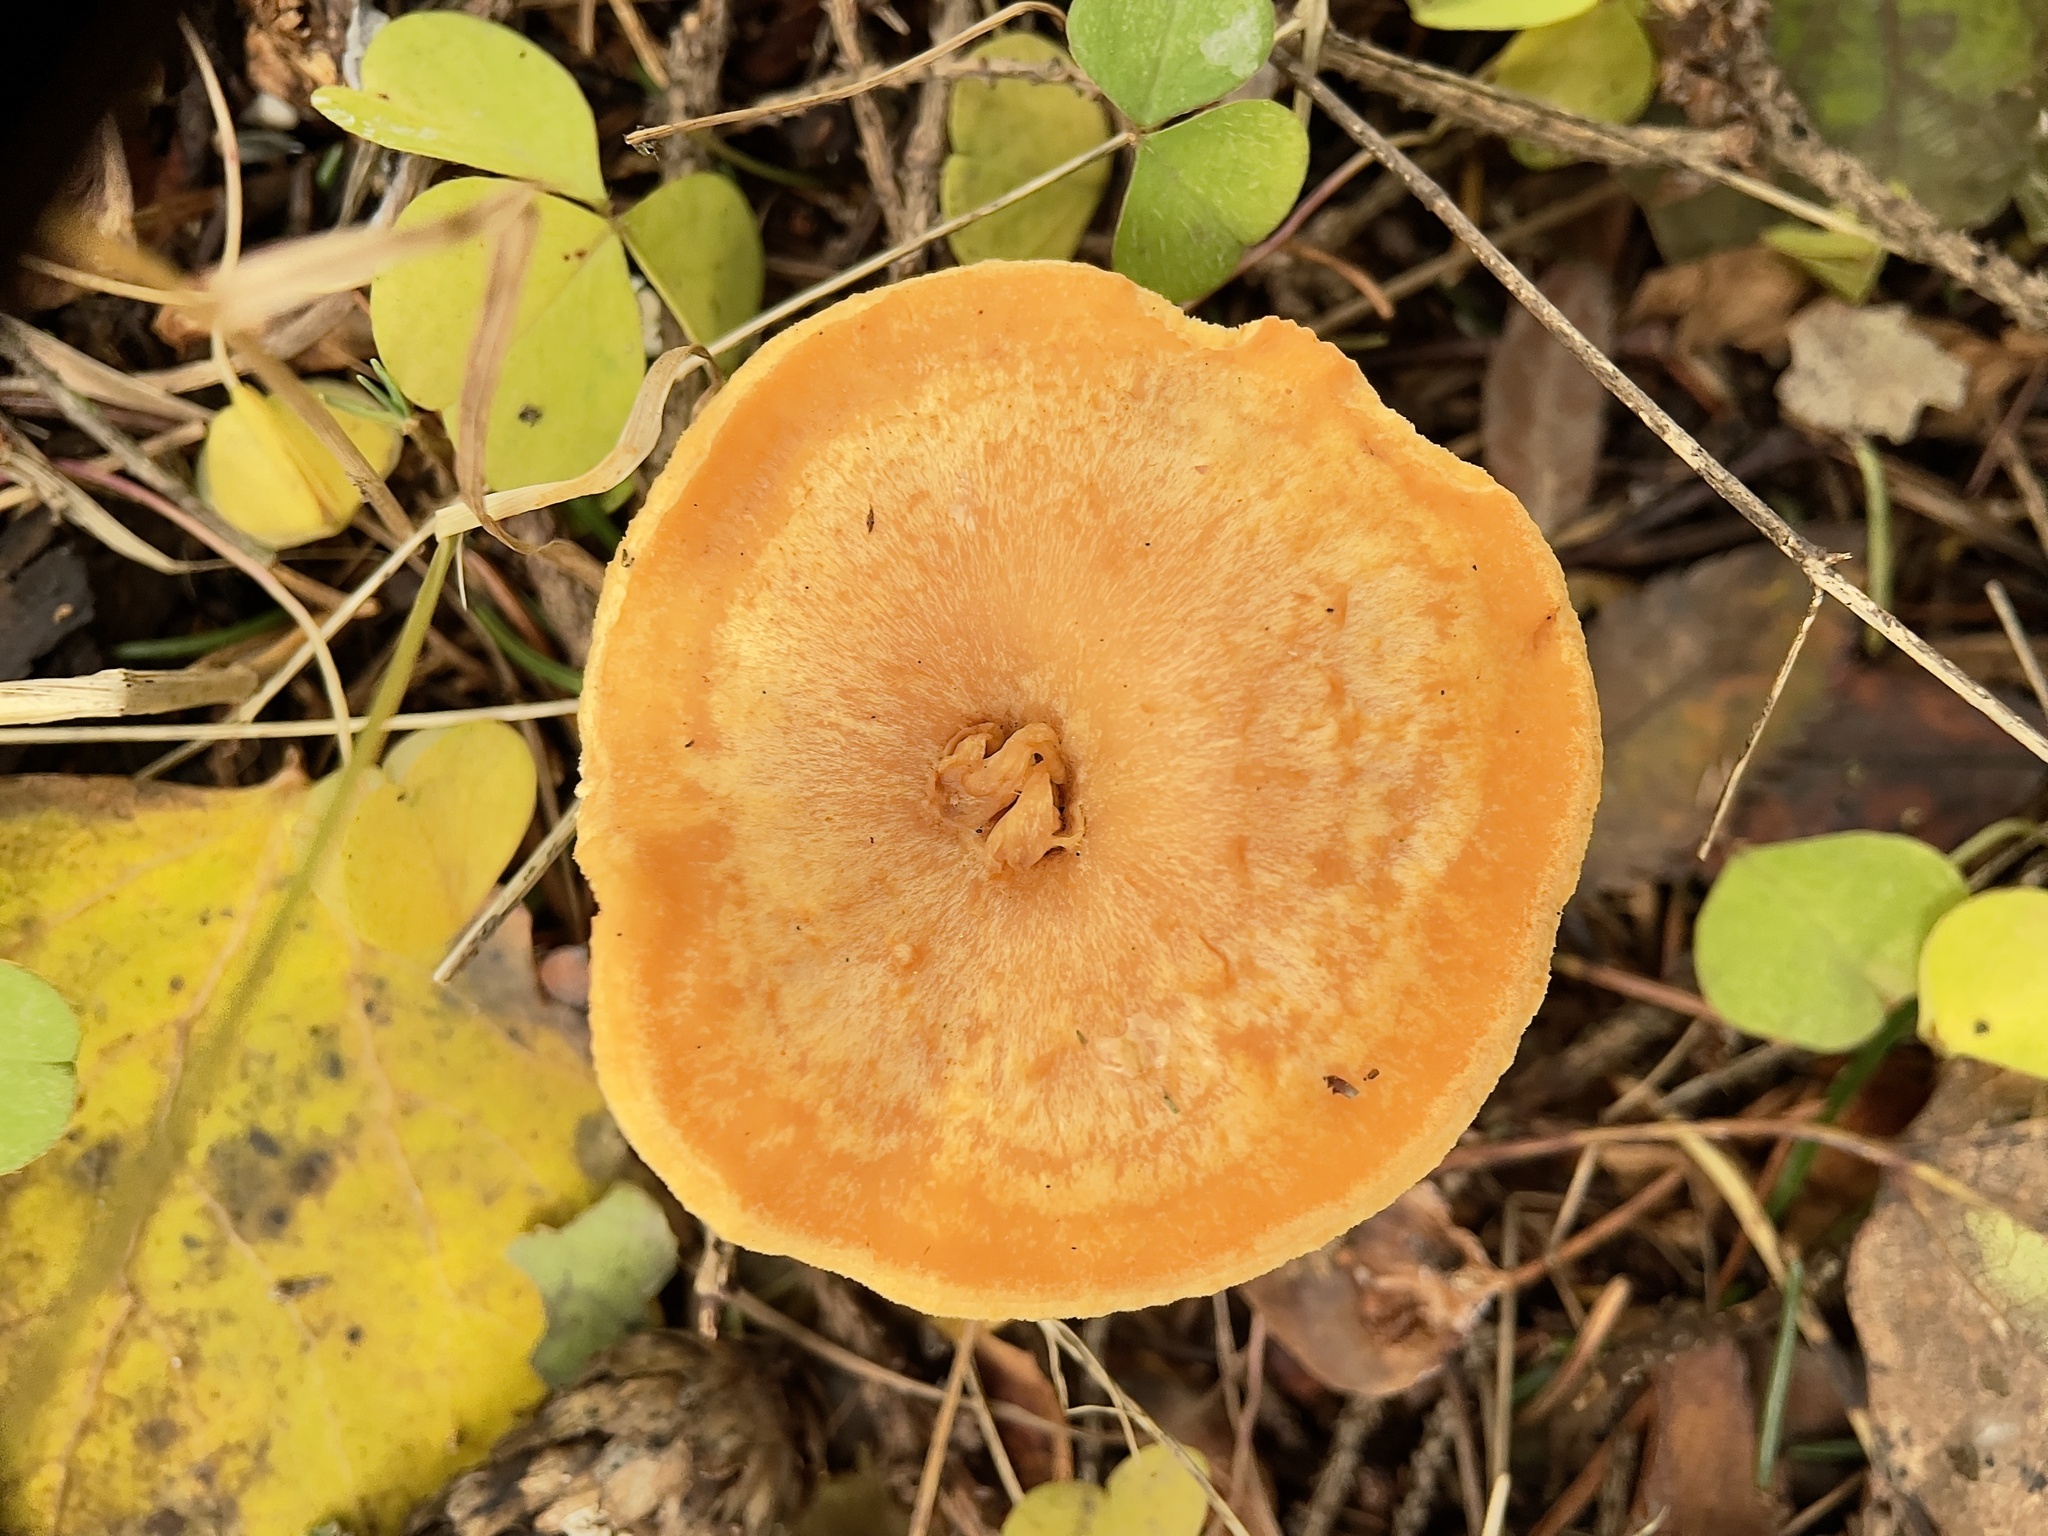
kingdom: Fungi
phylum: Basidiomycota
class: Agaricomycetes
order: Cantharellales
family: Hydnaceae
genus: Hydnum
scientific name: Hydnum umbilicatum
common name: Umbilicate hedgehog
